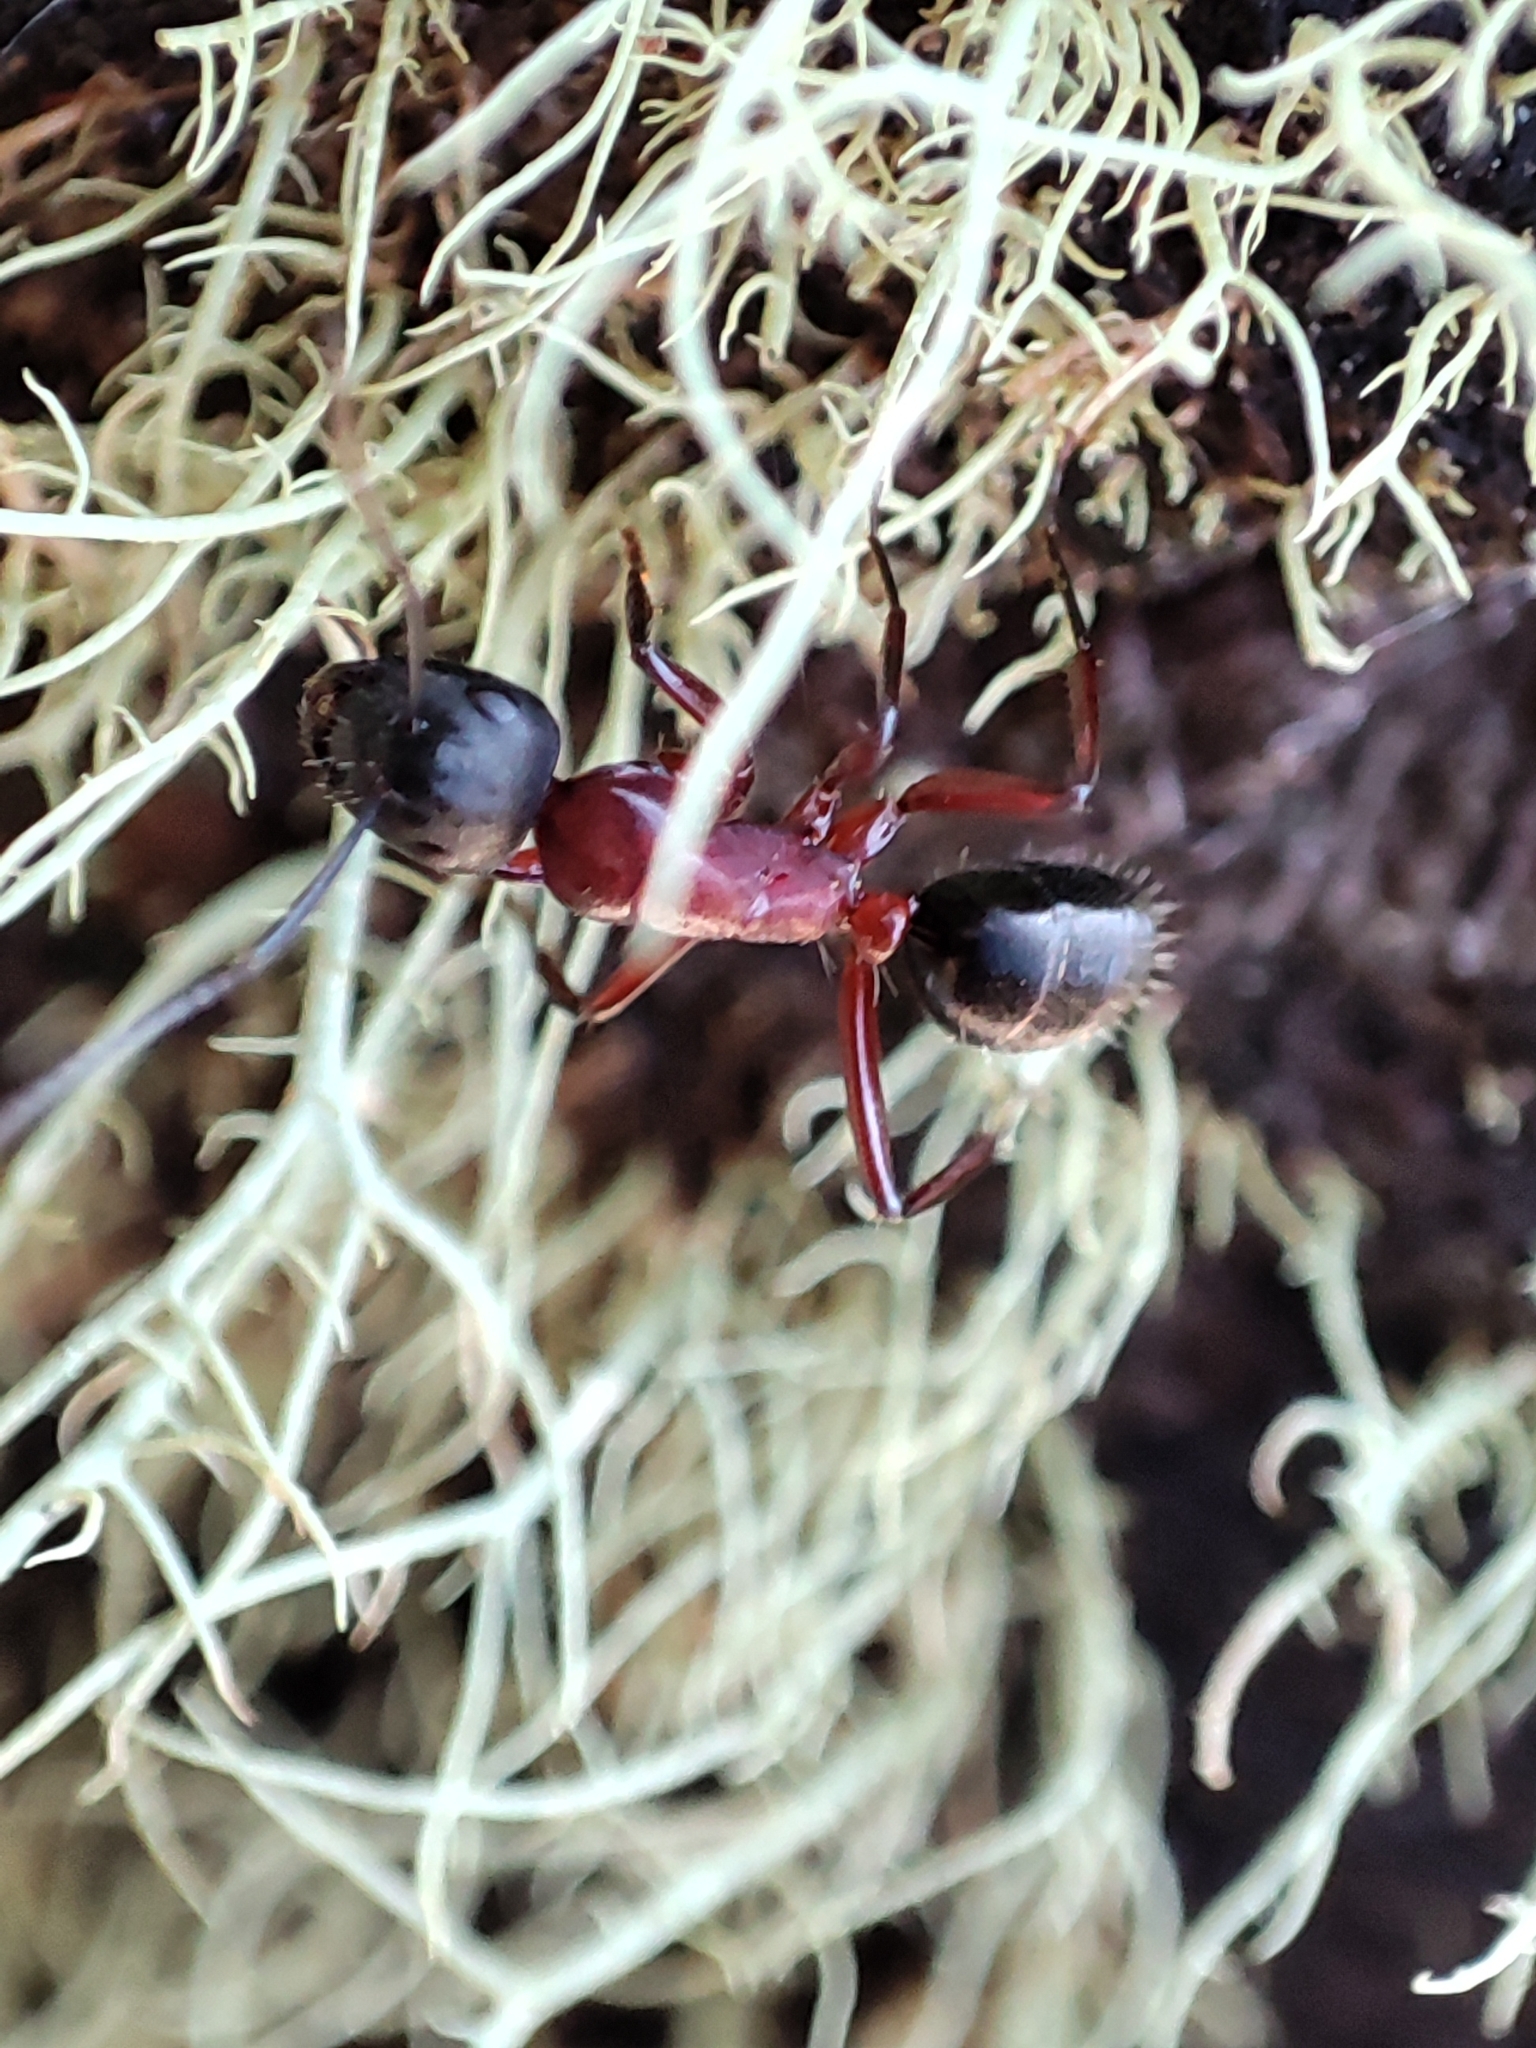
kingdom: Animalia
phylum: Arthropoda
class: Insecta
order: Hymenoptera
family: Formicidae
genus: Camponotus
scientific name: Camponotus innexus
